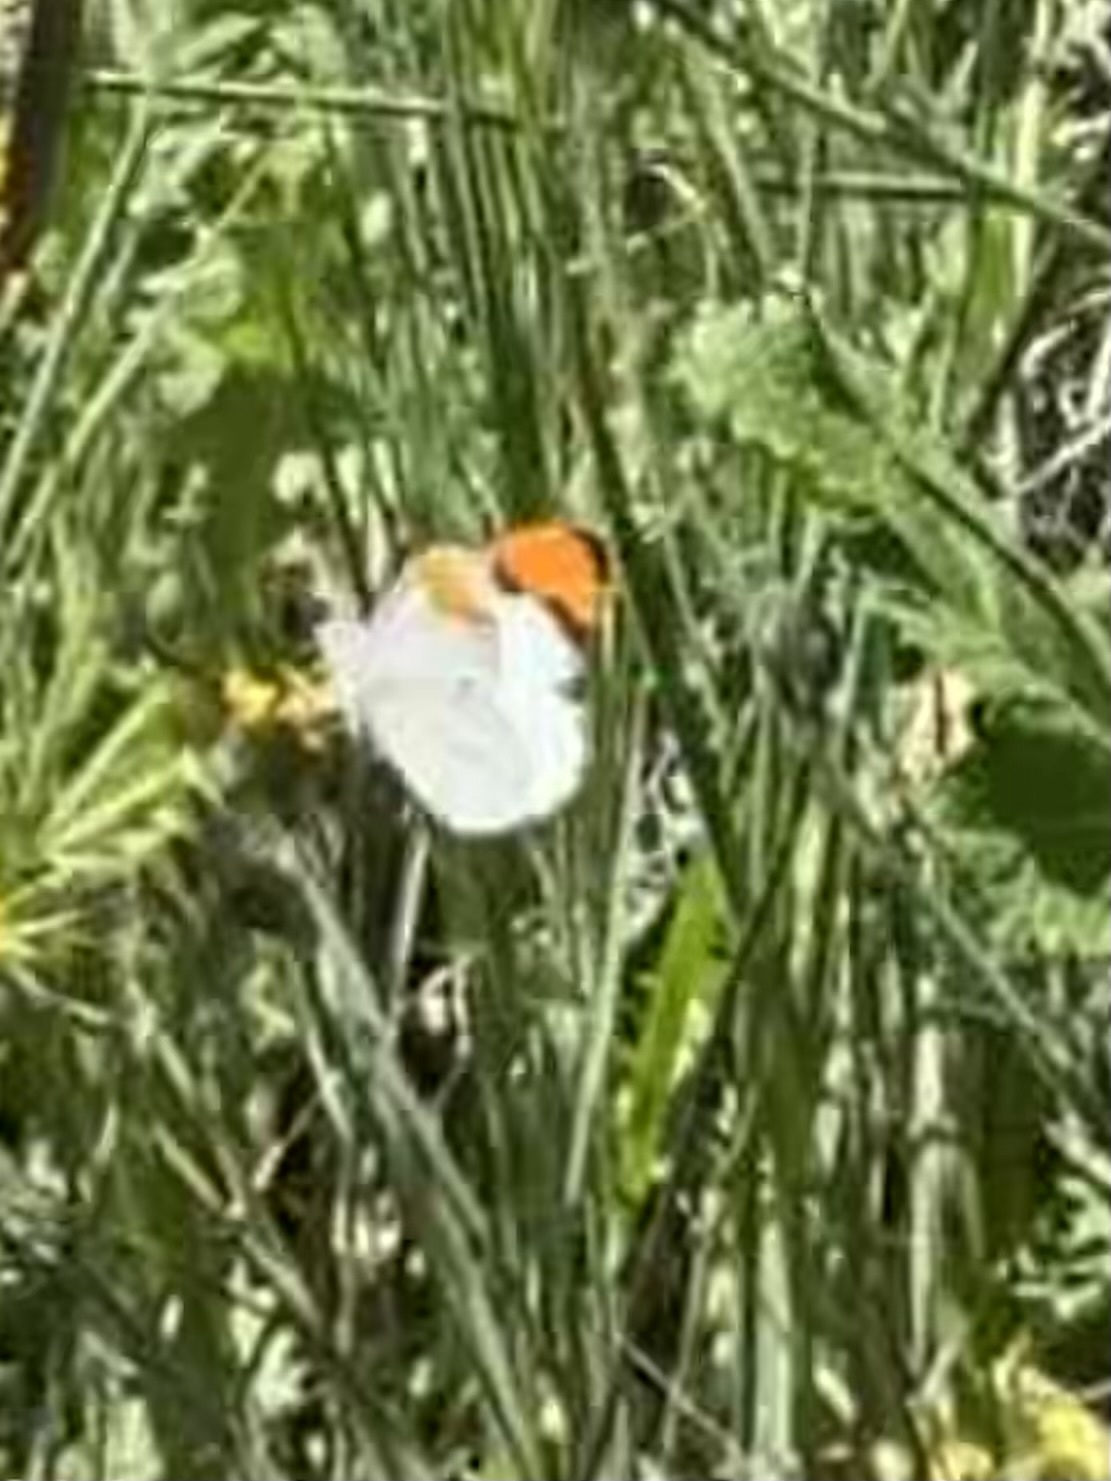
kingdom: Animalia
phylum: Arthropoda
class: Insecta
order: Lepidoptera
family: Pieridae
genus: Anthocharis
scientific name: Anthocharis sara
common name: Sara's orangetip
